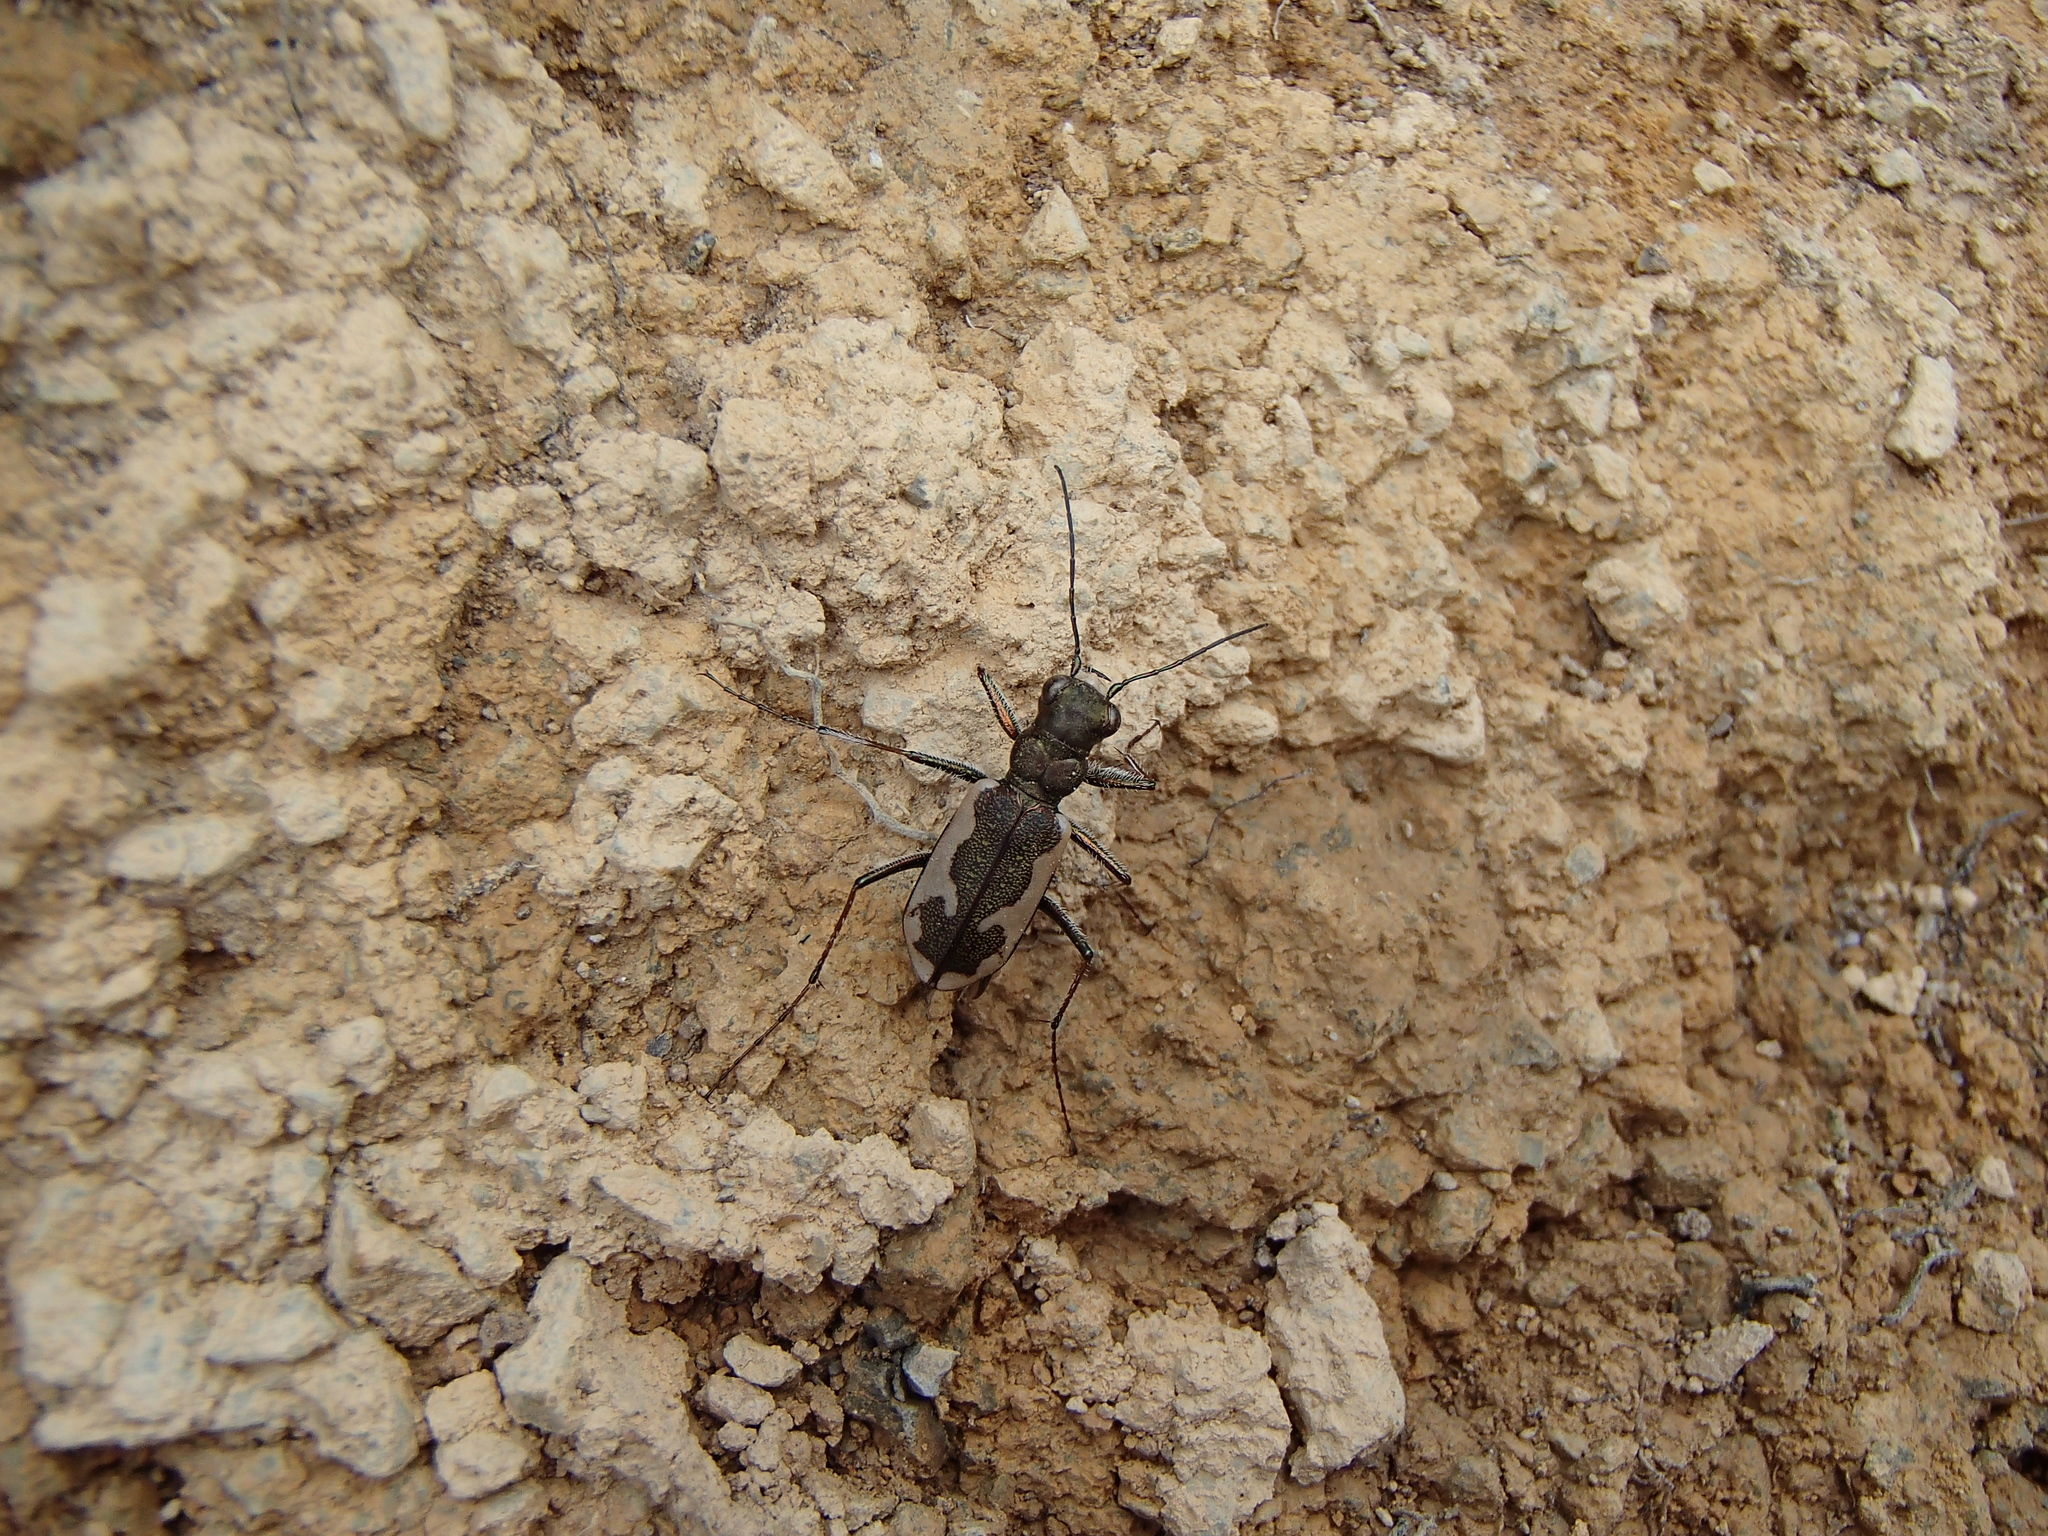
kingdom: Animalia
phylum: Arthropoda
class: Insecta
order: Coleoptera
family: Carabidae
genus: Neocicindela
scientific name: Neocicindela latecincta
